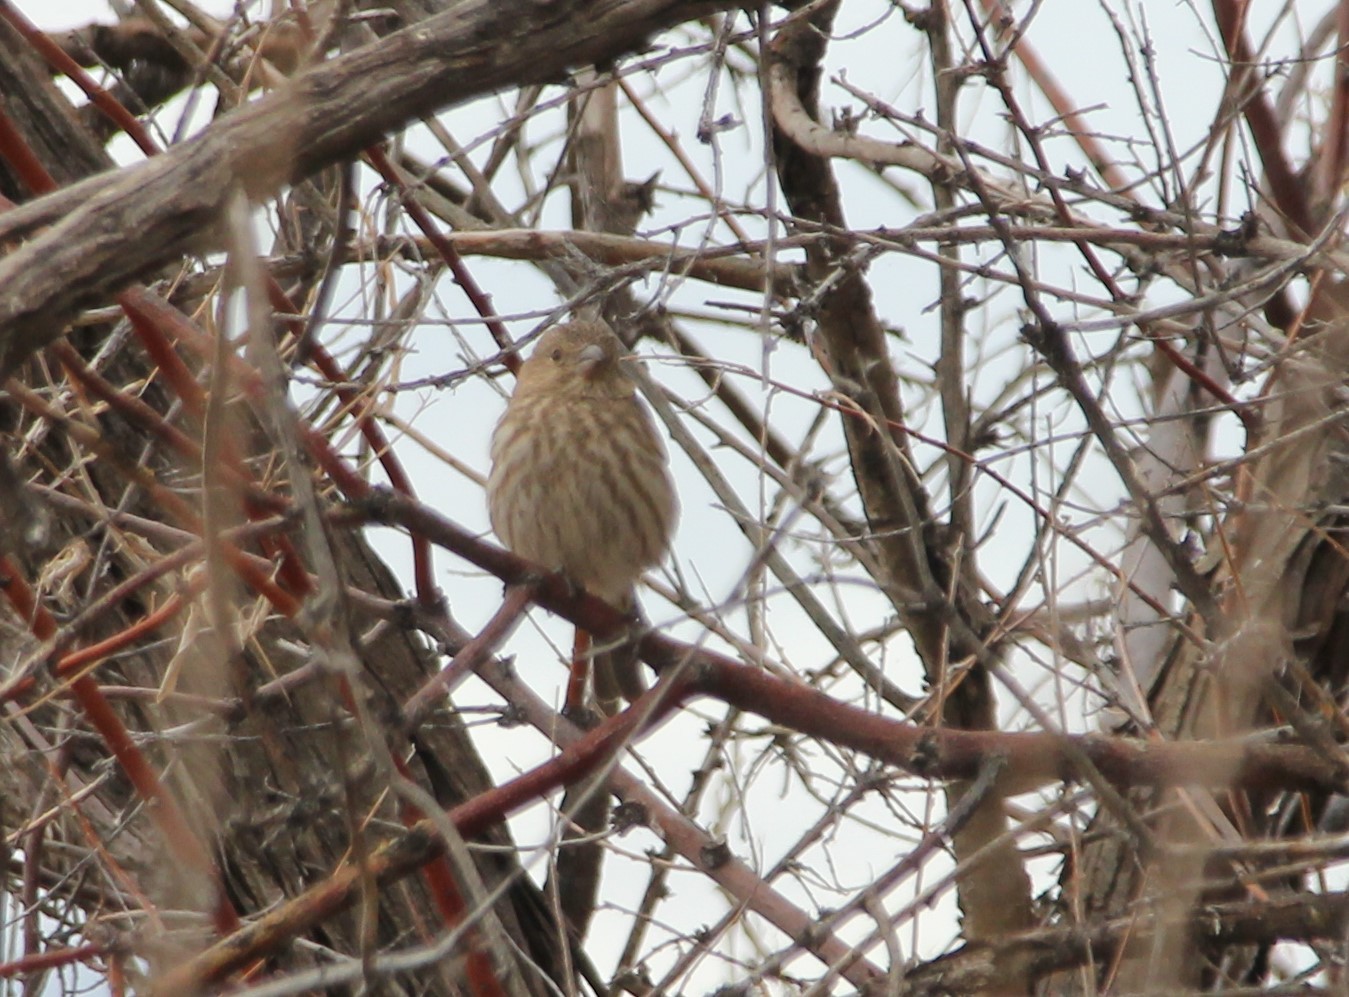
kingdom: Animalia
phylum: Chordata
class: Aves
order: Passeriformes
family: Fringillidae
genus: Haemorhous
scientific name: Haemorhous mexicanus
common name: House finch
